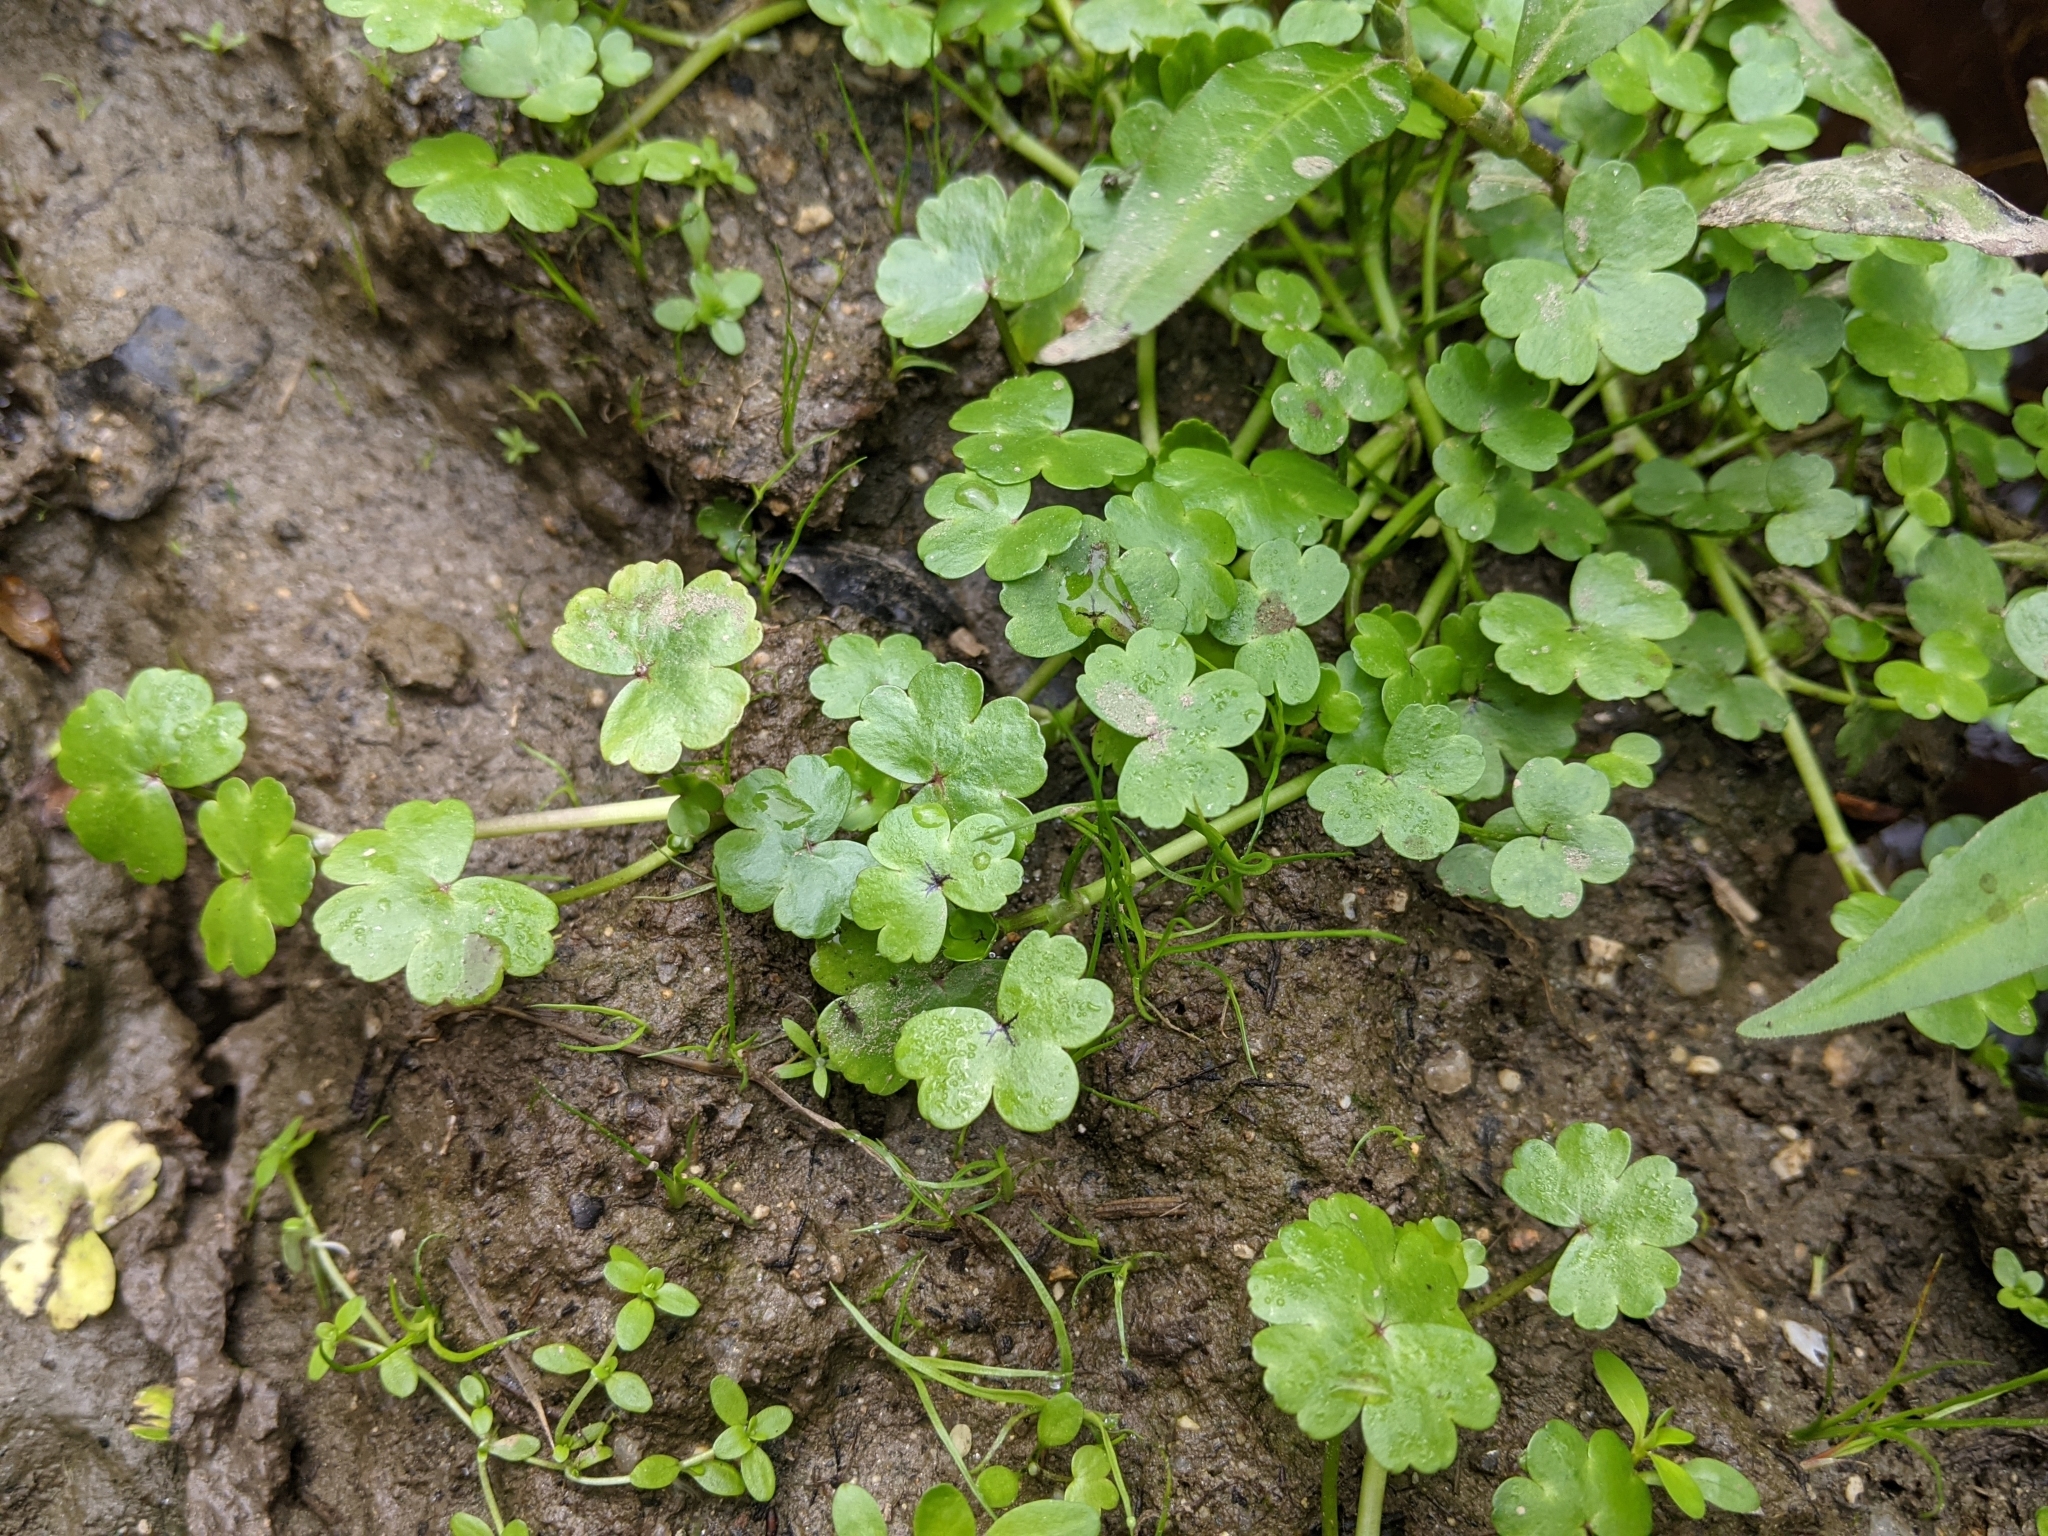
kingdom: Plantae
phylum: Tracheophyta
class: Magnoliopsida
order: Ranunculales
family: Ranunculaceae
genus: Ranunculus
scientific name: Ranunculus omiophyllus
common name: Round-leaved crowfoot
